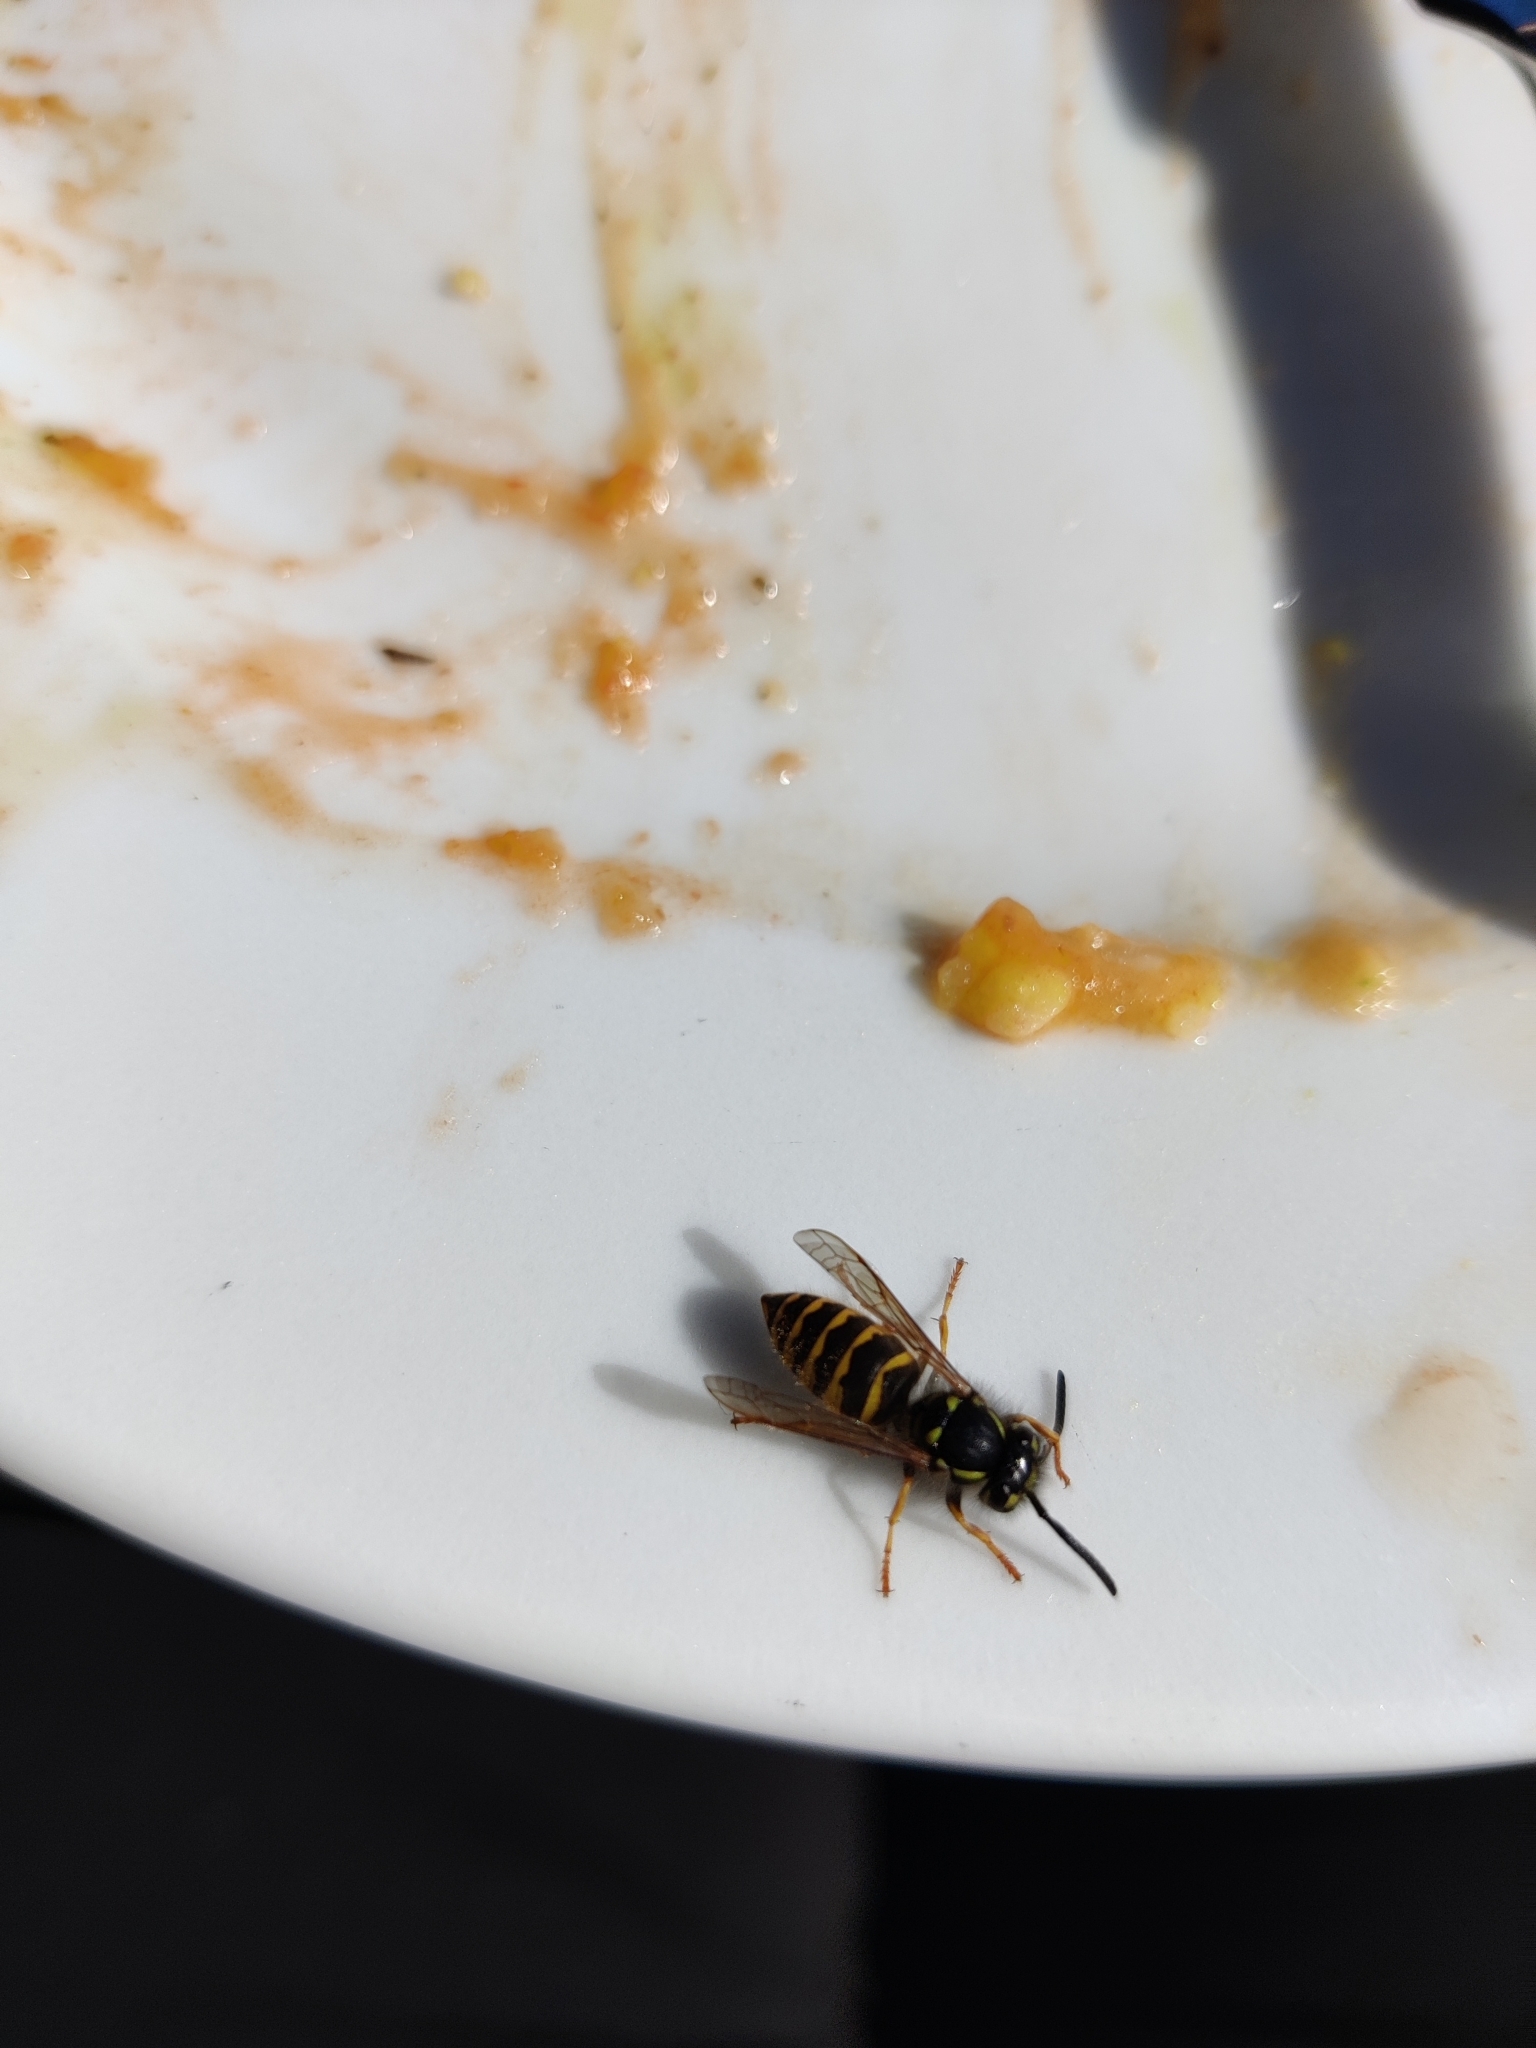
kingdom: Animalia
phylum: Arthropoda
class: Insecta
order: Hymenoptera
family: Vespidae
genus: Vespula
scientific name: Vespula vulgaris
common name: Common wasp
